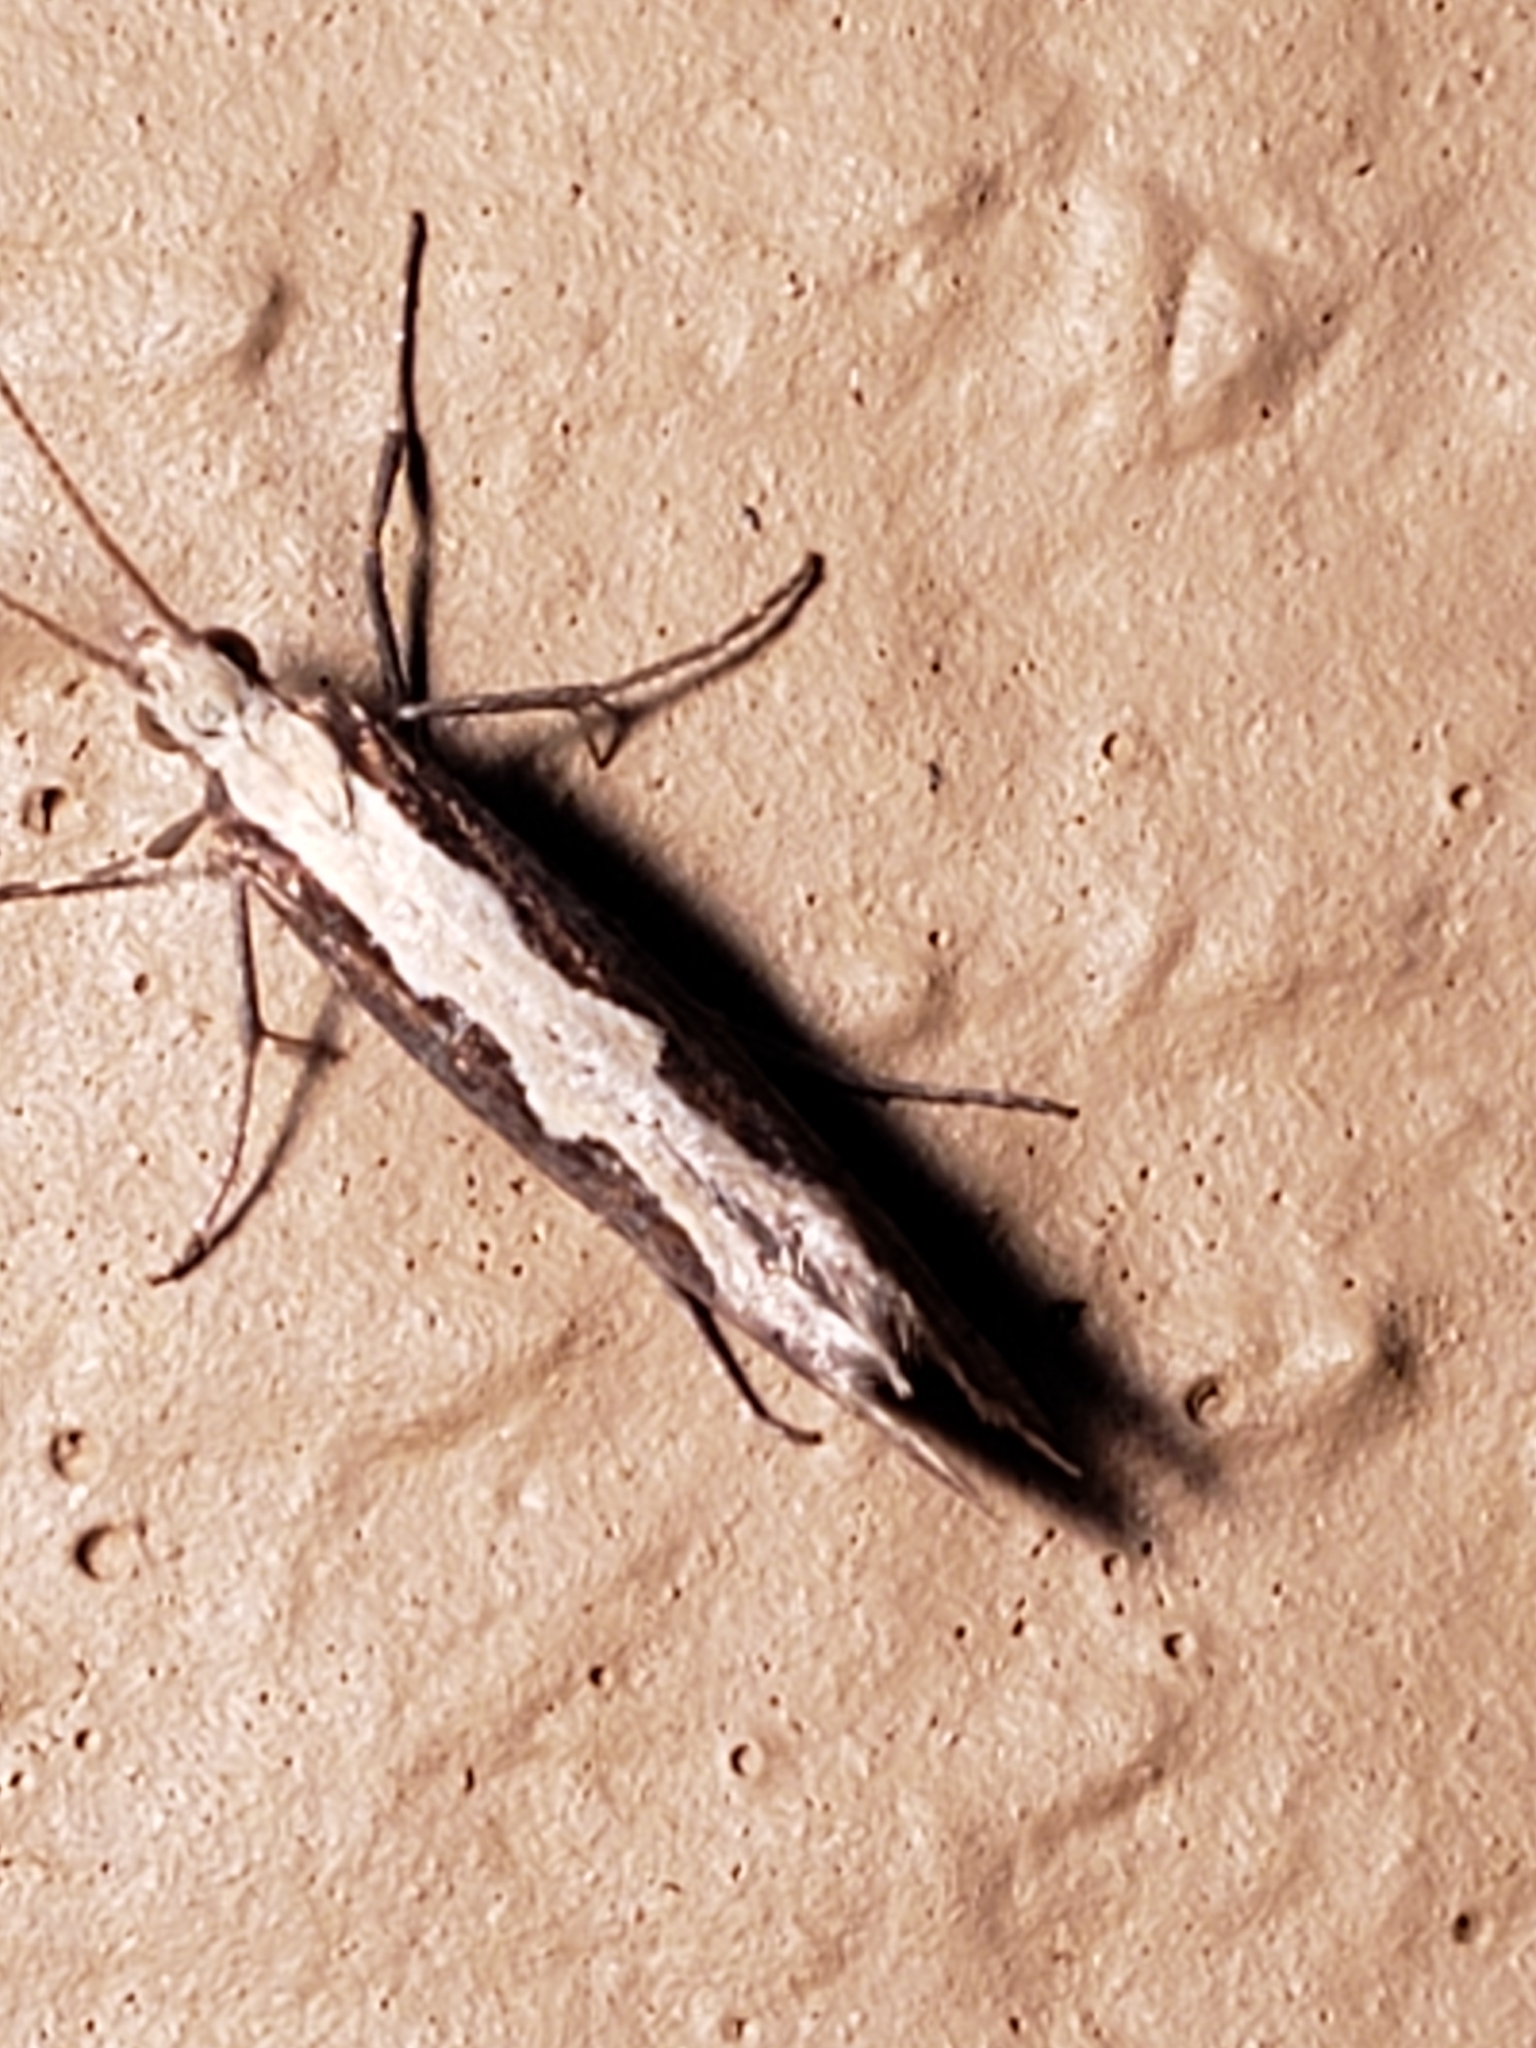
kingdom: Animalia
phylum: Arthropoda
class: Insecta
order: Lepidoptera
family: Plutellidae
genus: Plutella
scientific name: Plutella xylostella
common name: Diamond-back moth
